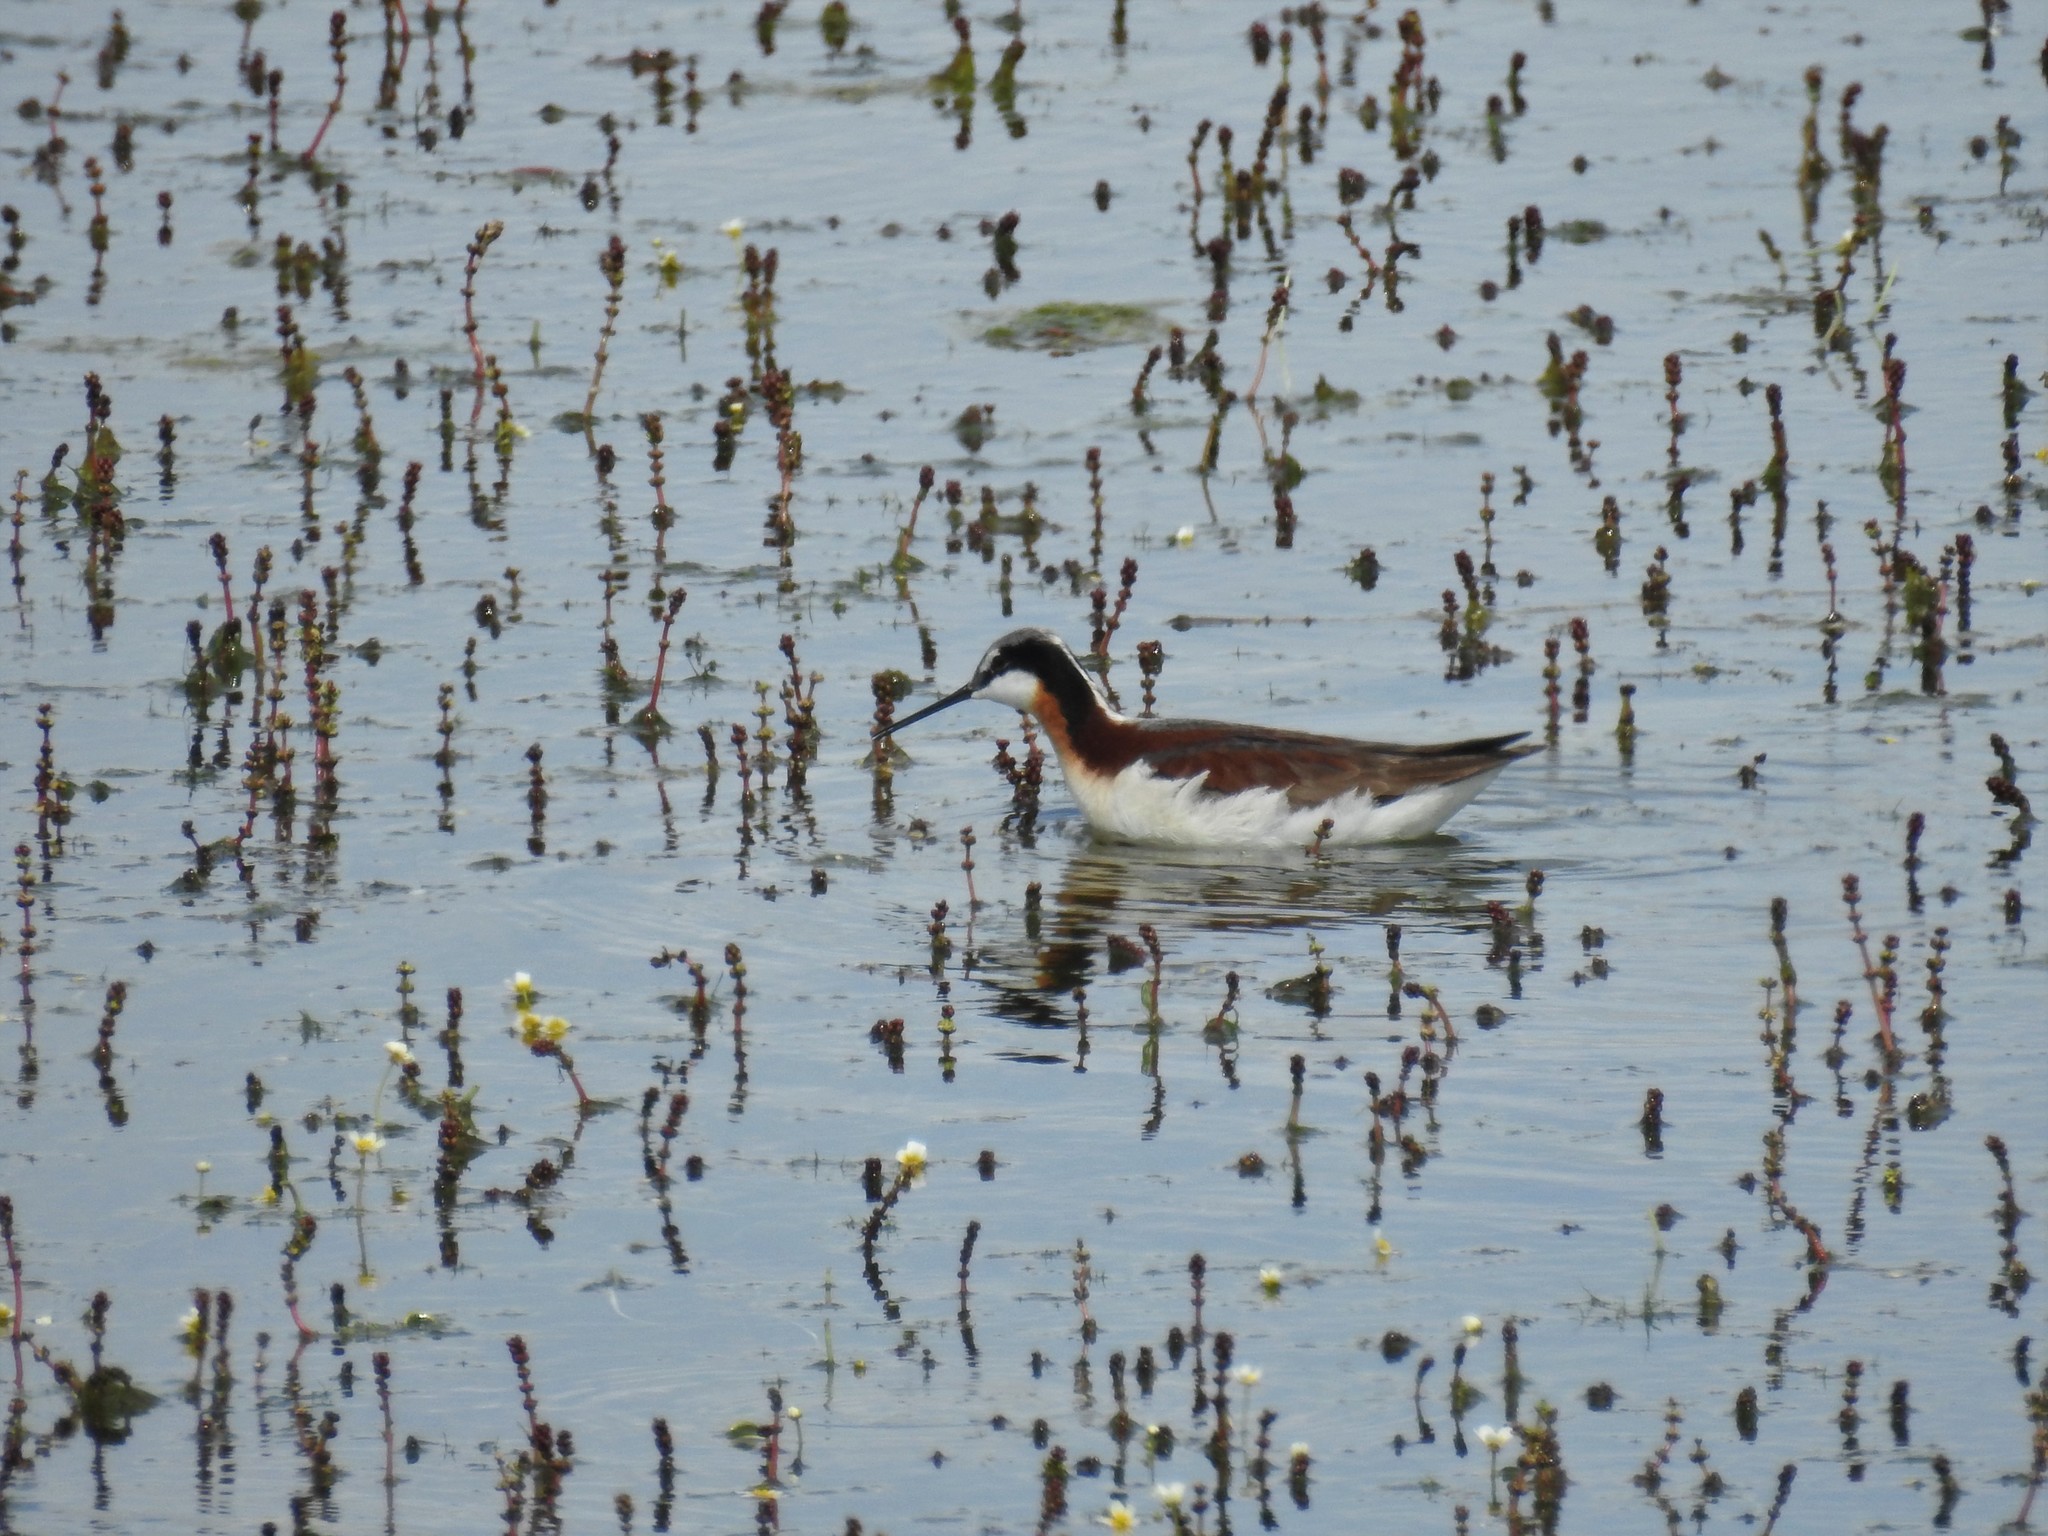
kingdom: Animalia
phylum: Chordata
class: Aves
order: Charadriiformes
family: Scolopacidae
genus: Phalaropus
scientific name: Phalaropus tricolor
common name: Wilson's phalarope
